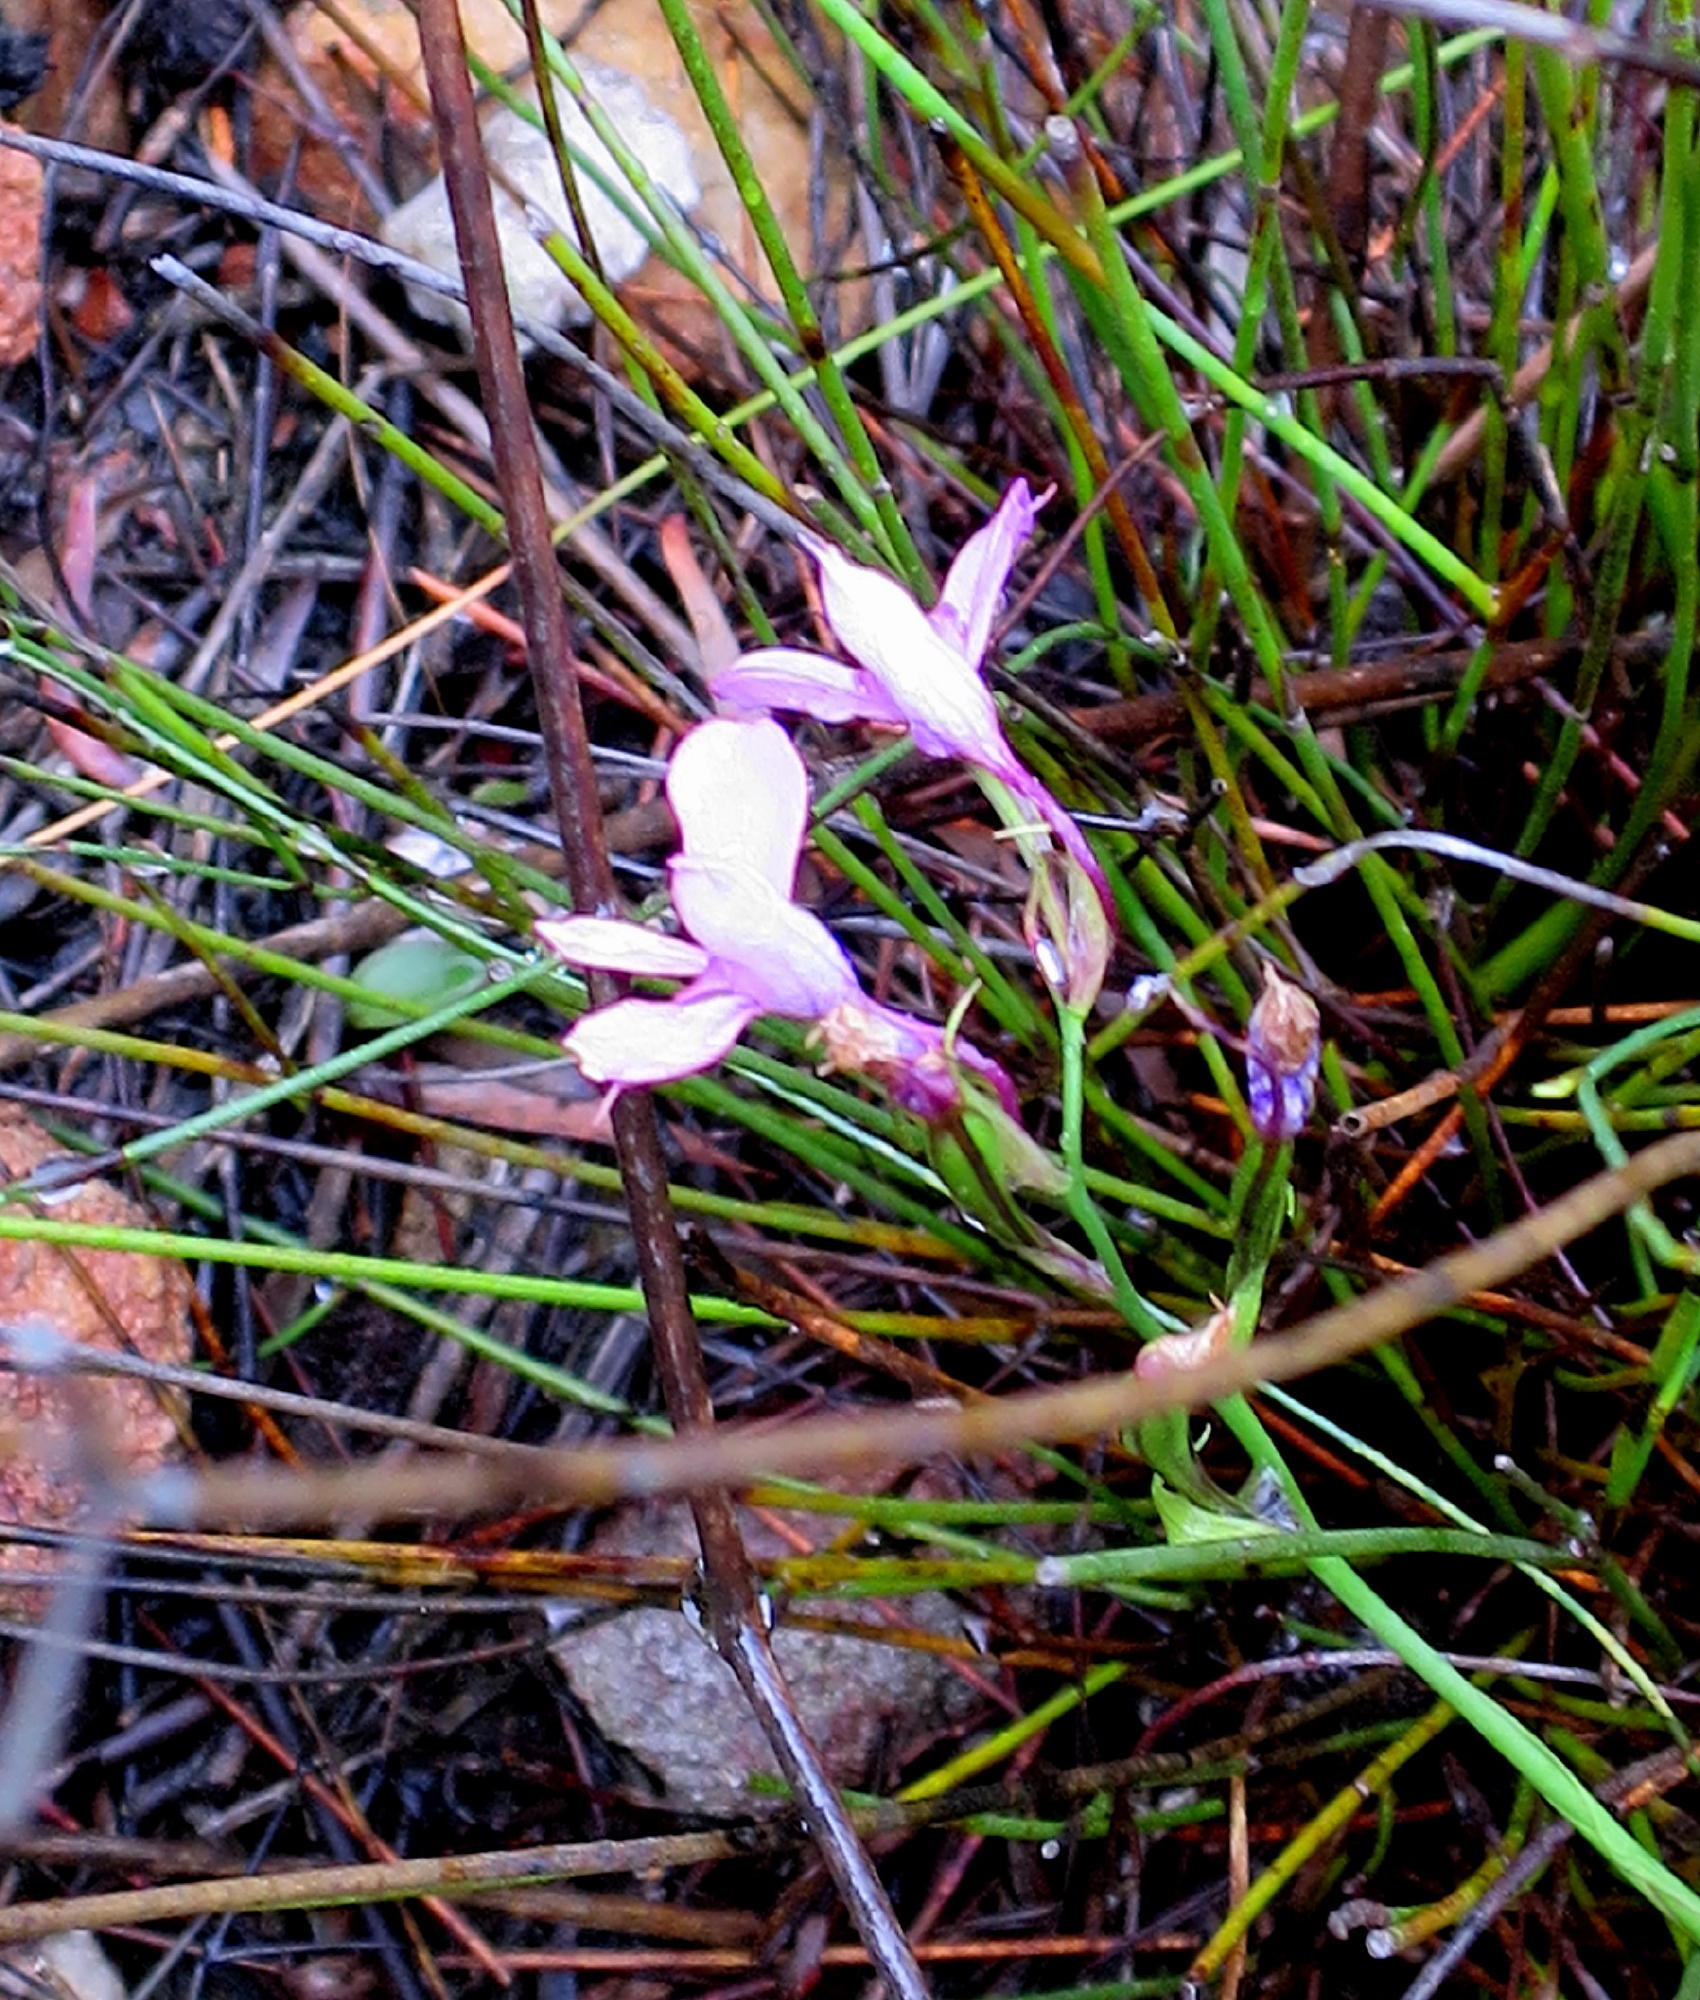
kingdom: Plantae
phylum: Tracheophyta
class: Liliopsida
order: Asparagales
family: Orchidaceae
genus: Disa
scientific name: Disa arida
